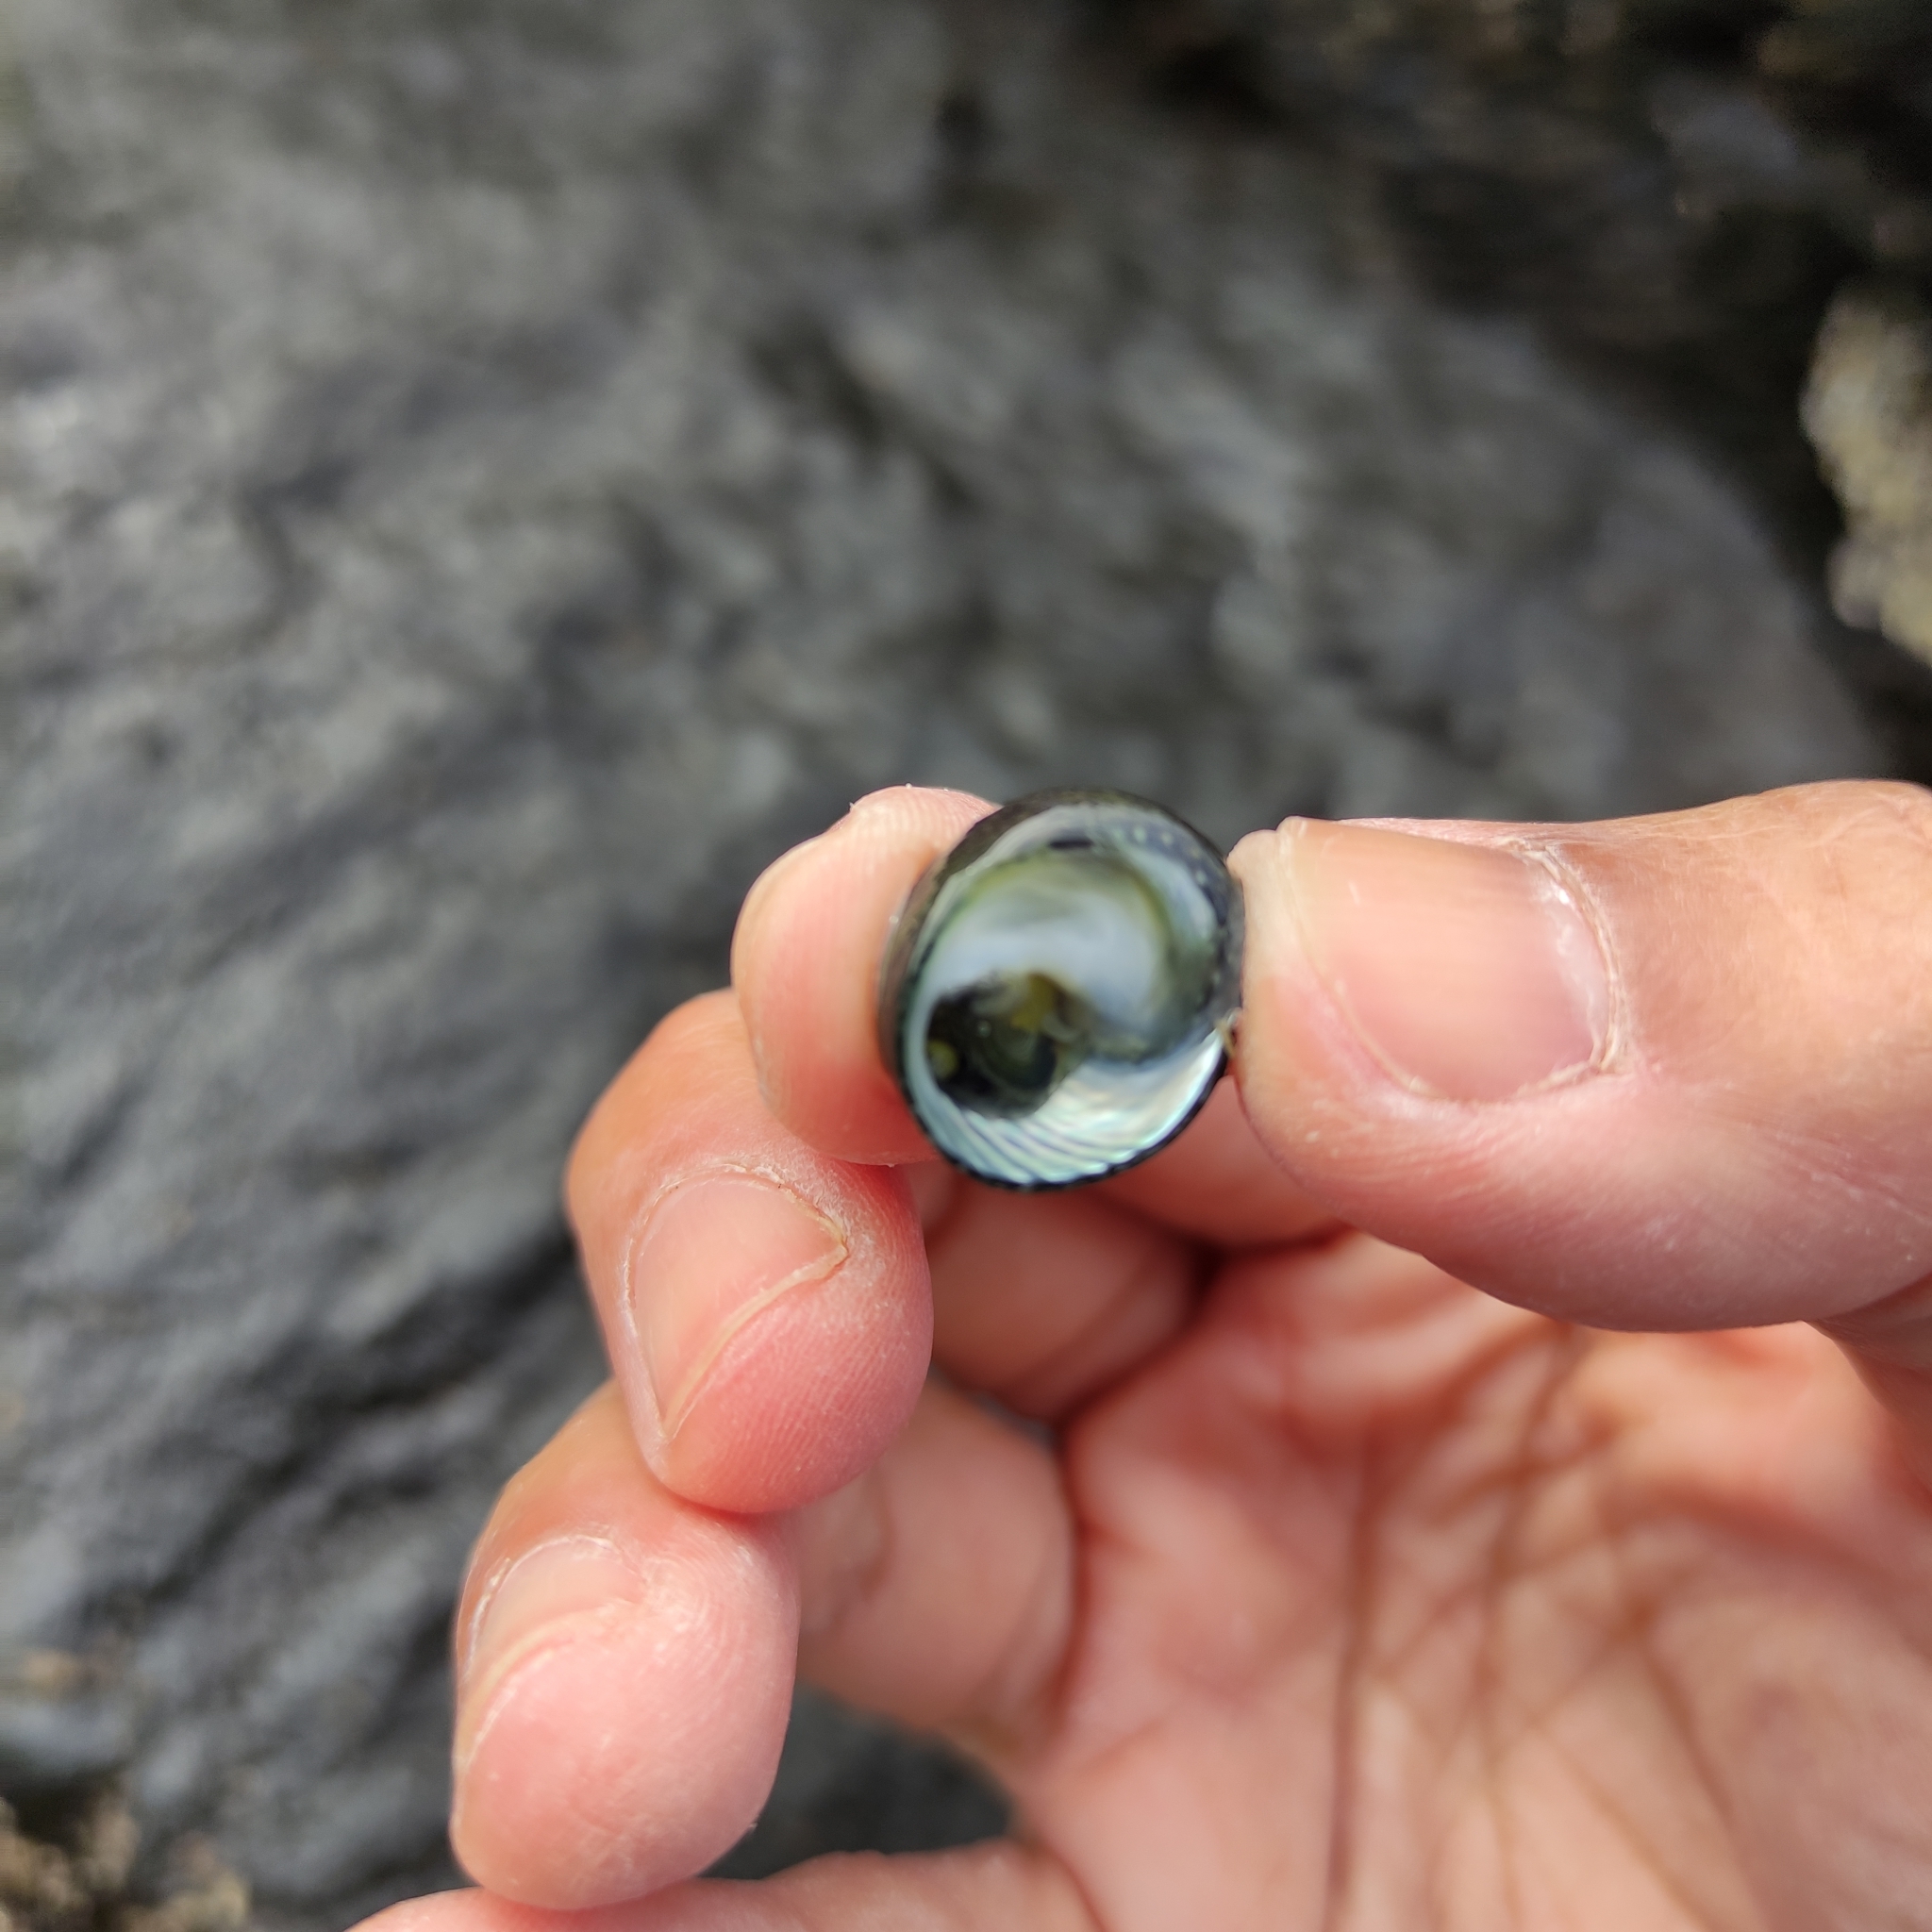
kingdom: Animalia
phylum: Mollusca
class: Gastropoda
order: Trochida
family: Trochidae
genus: Diloma
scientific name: Diloma zelandicum
